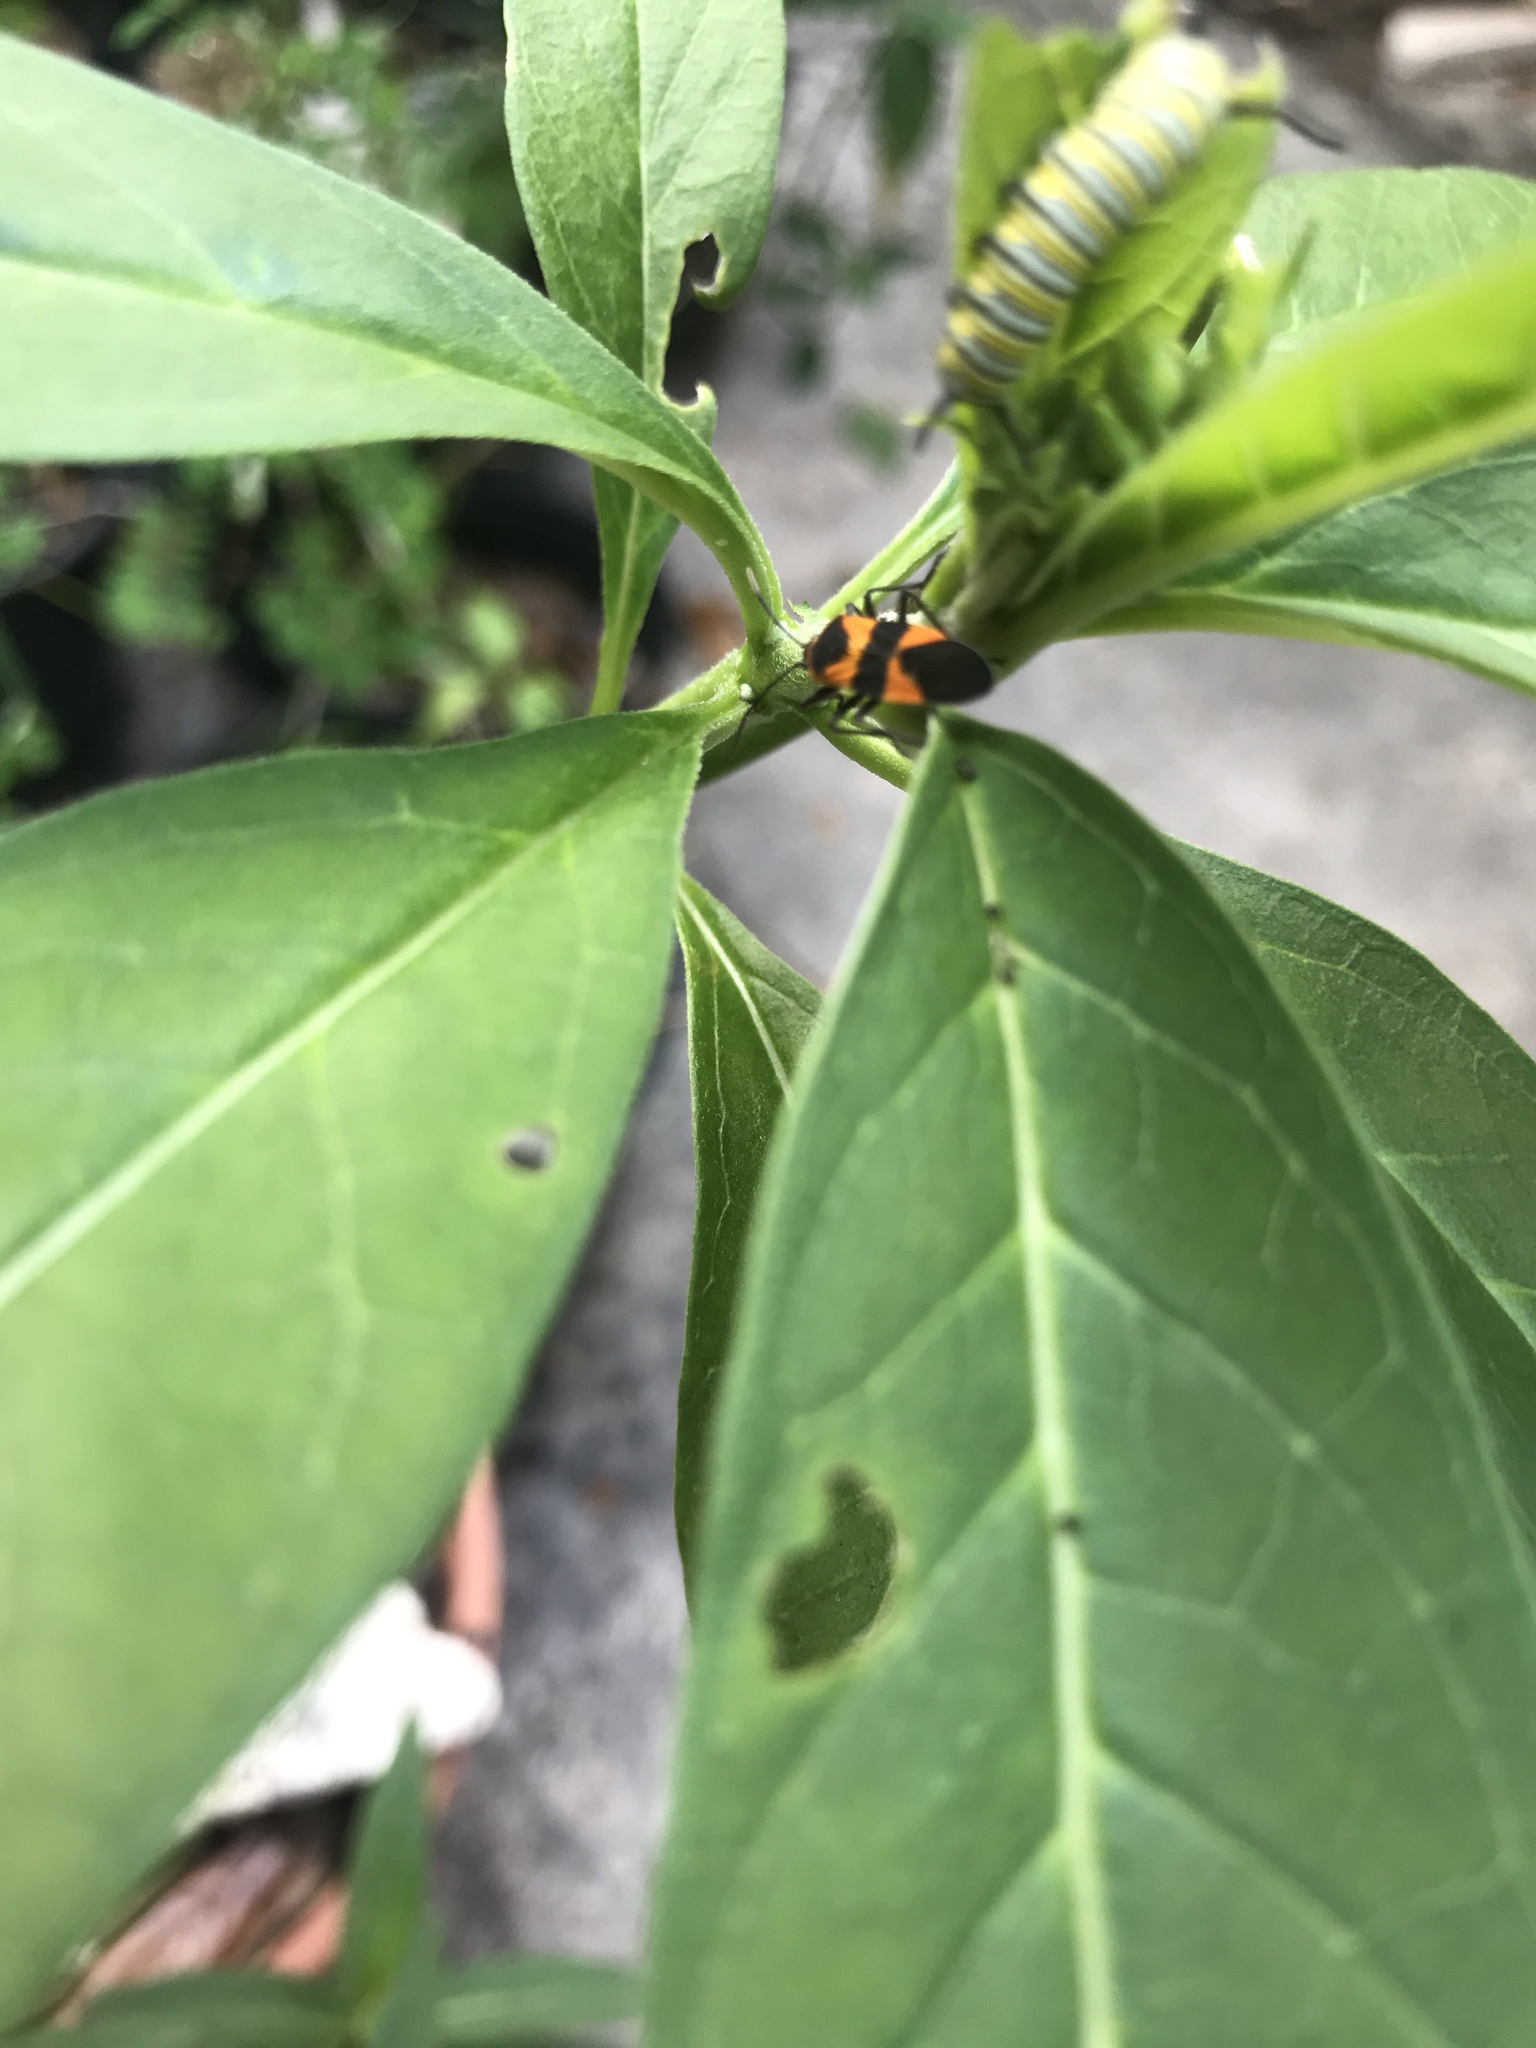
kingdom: Animalia
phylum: Arthropoda
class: Insecta
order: Hemiptera
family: Lygaeidae
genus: Oncopeltus
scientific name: Oncopeltus fasciatus
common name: Large milkweed bug
